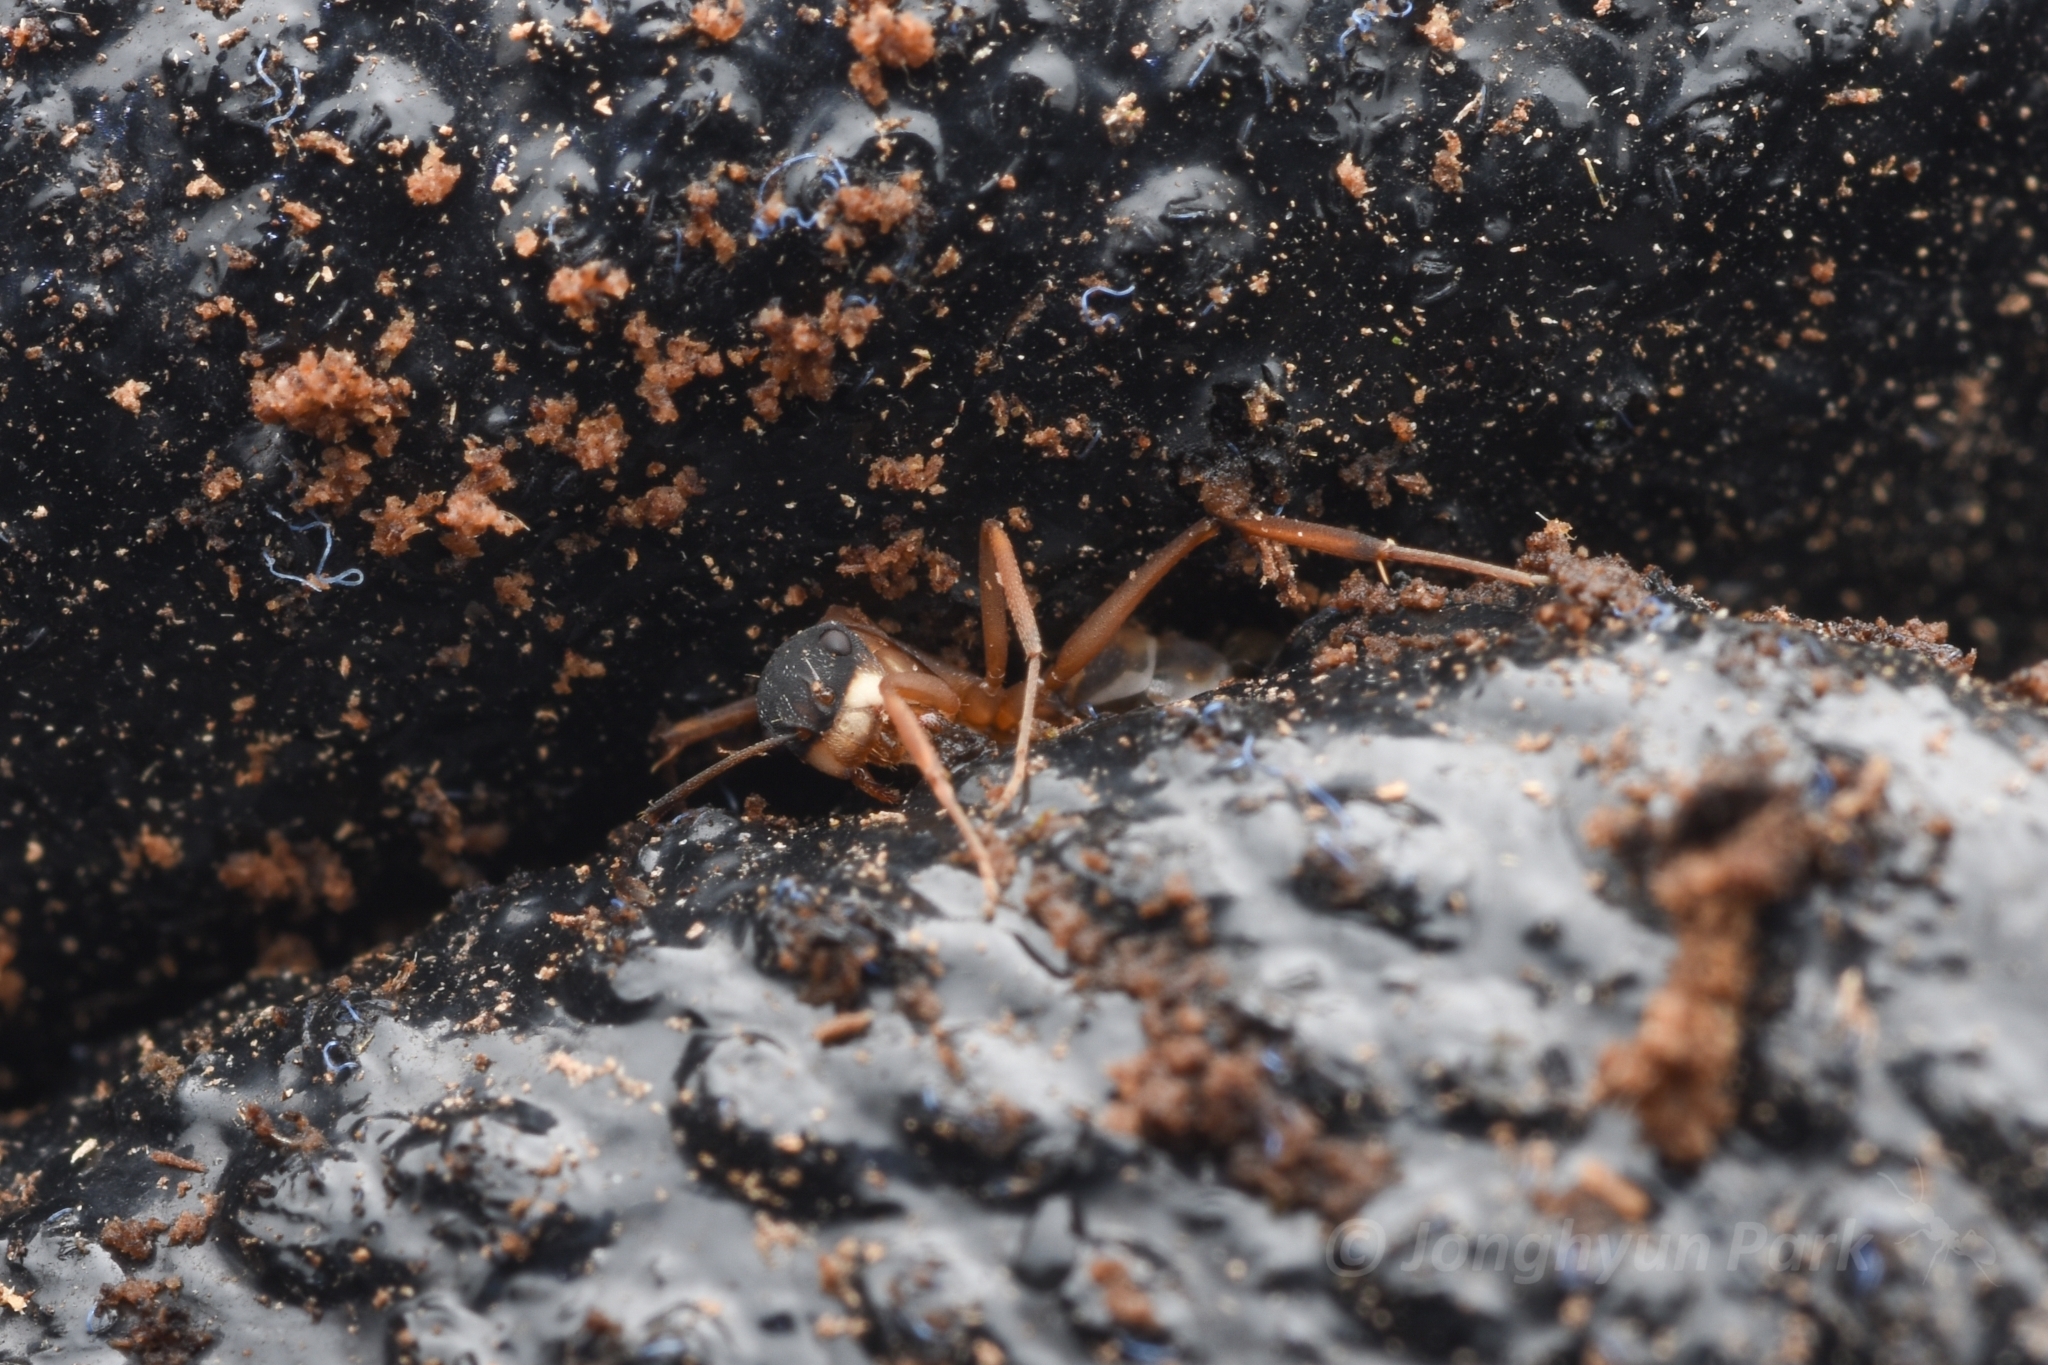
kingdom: Animalia
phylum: Arthropoda
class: Insecta
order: Hymenoptera
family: Formicidae
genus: Camponotus
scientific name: Camponotus heathi
